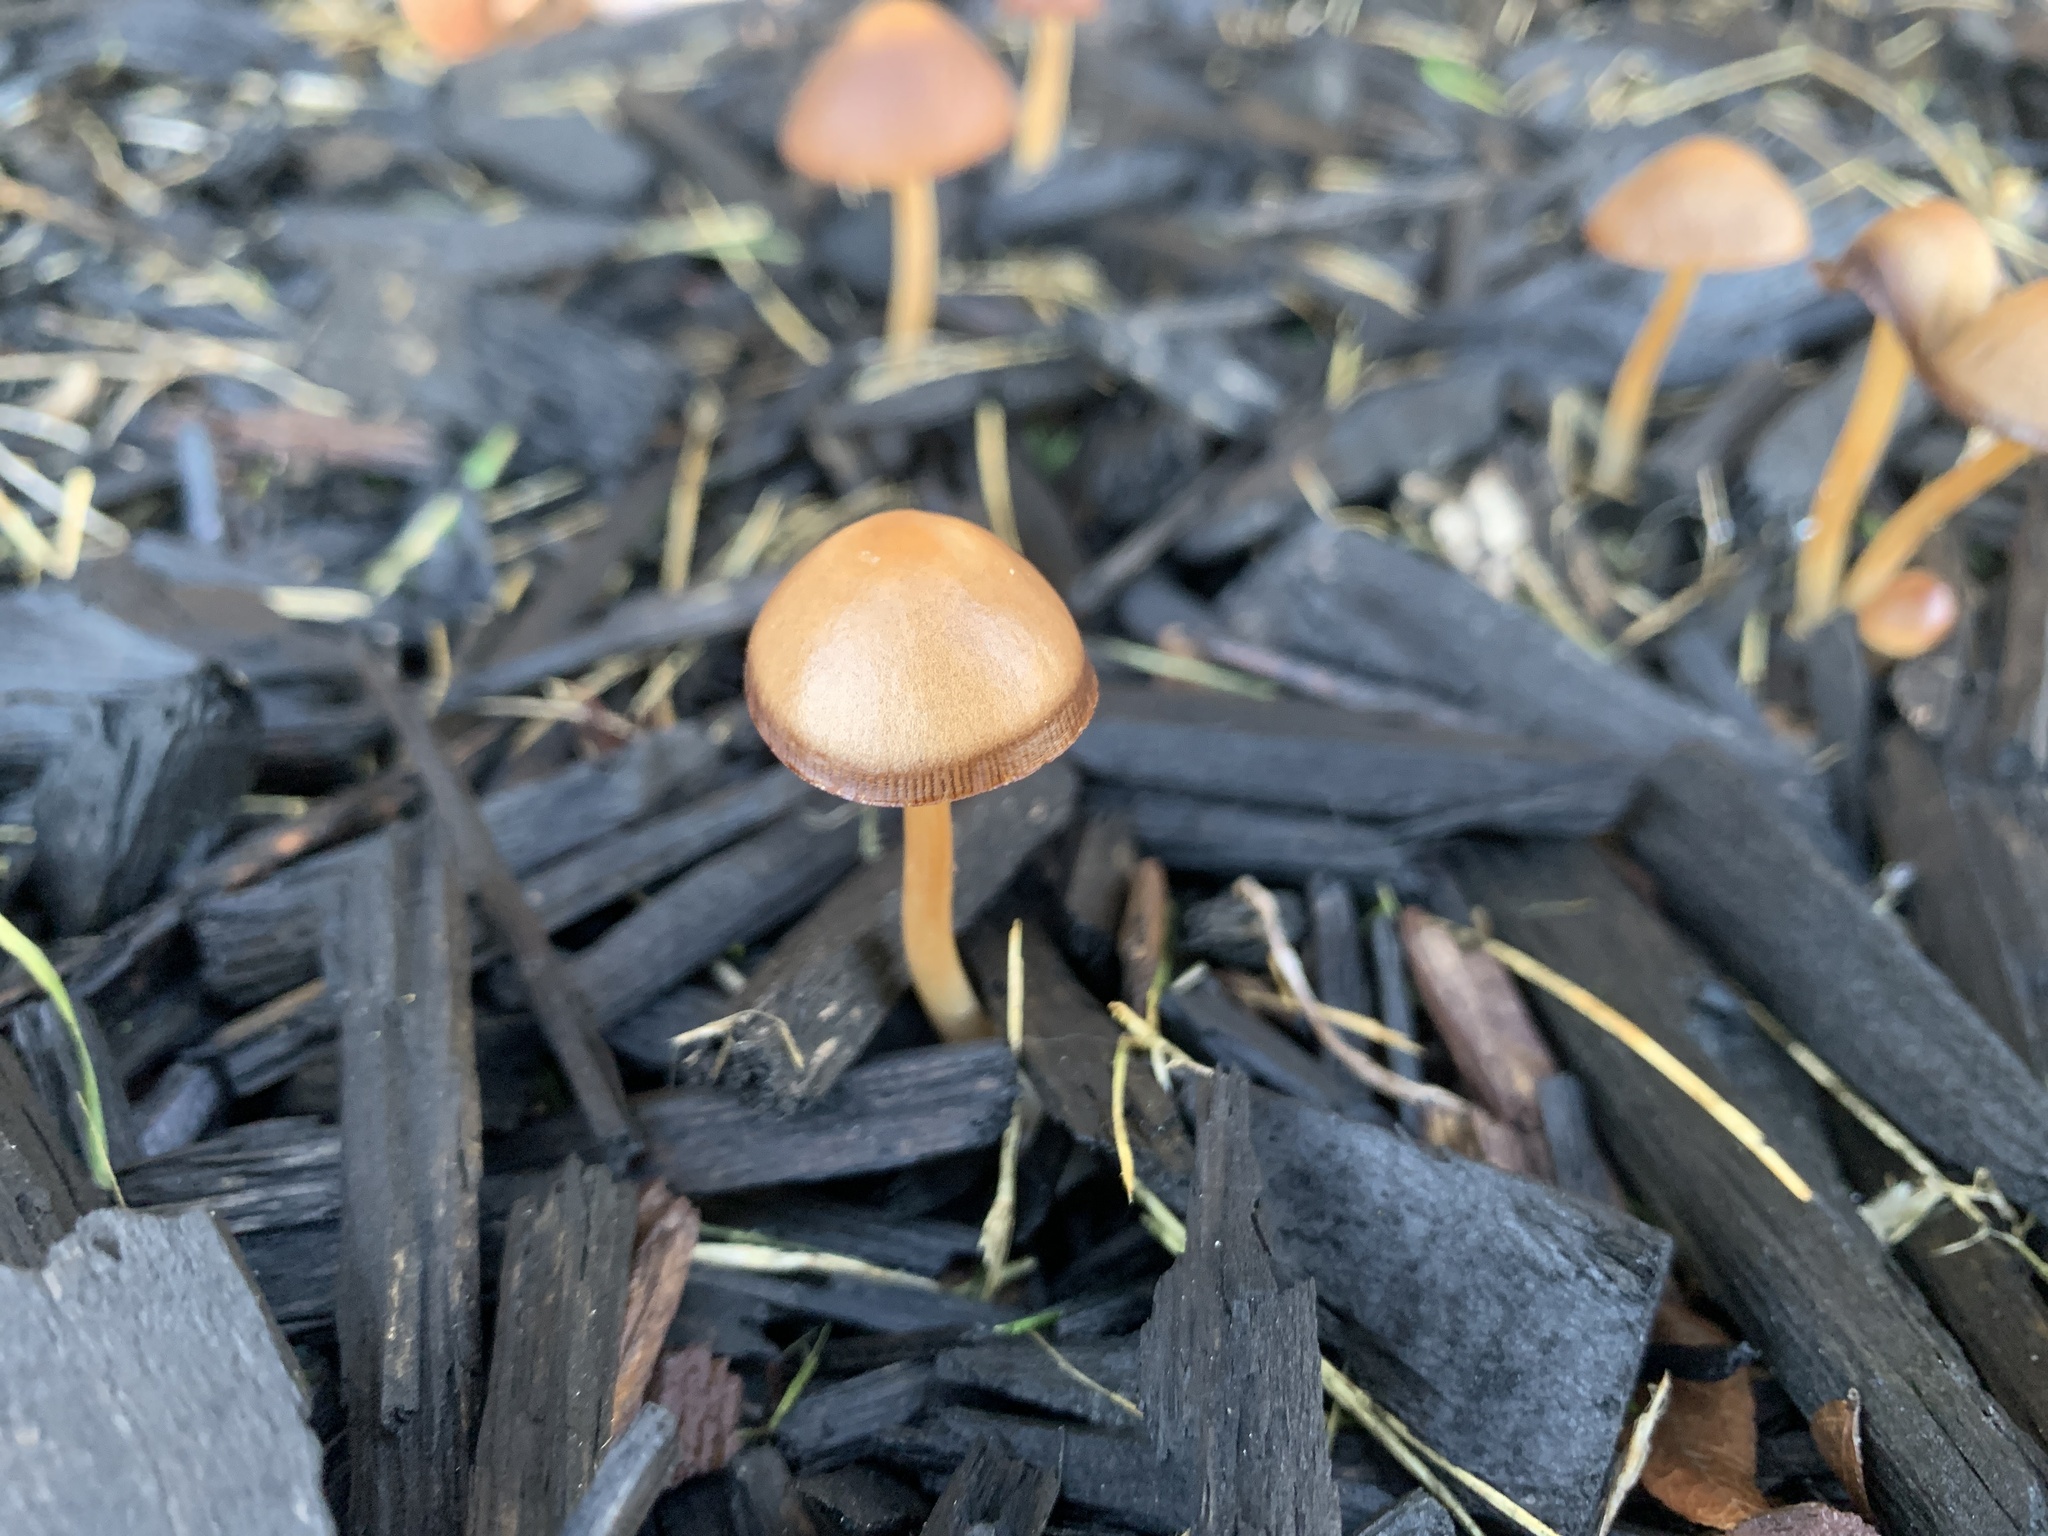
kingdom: Fungi
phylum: Basidiomycota
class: Agaricomycetes
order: Agaricales
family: Psathyrellaceae
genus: Parasola
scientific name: Parasola conopilea
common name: Conical brittlestem
